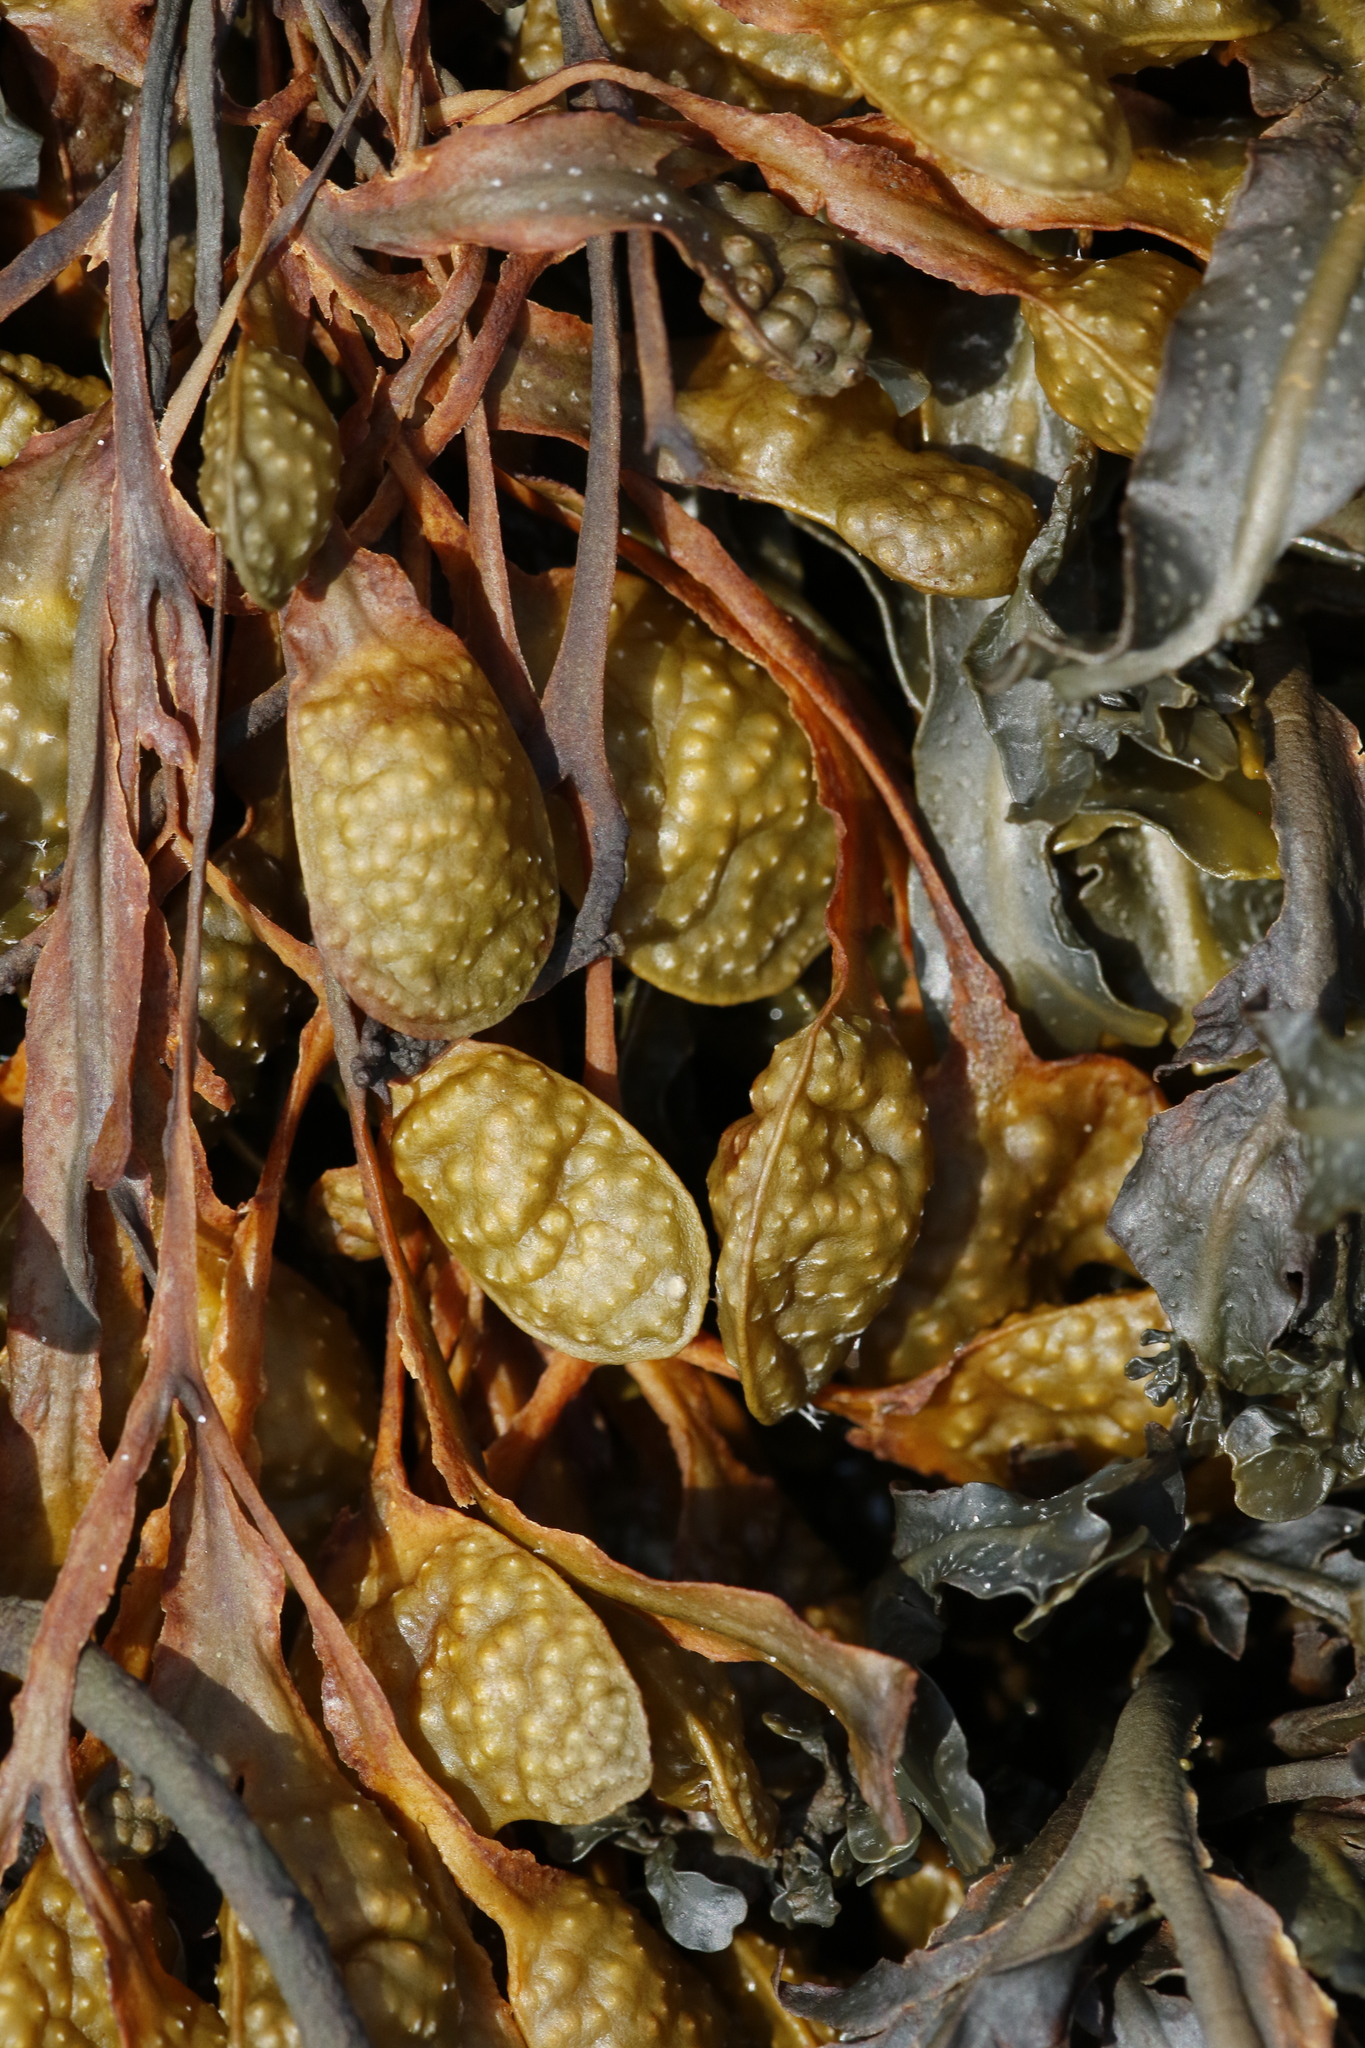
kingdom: Chromista
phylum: Ochrophyta
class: Phaeophyceae
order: Fucales
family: Fucaceae
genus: Fucus
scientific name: Fucus spiralis
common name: Spiral wrack
